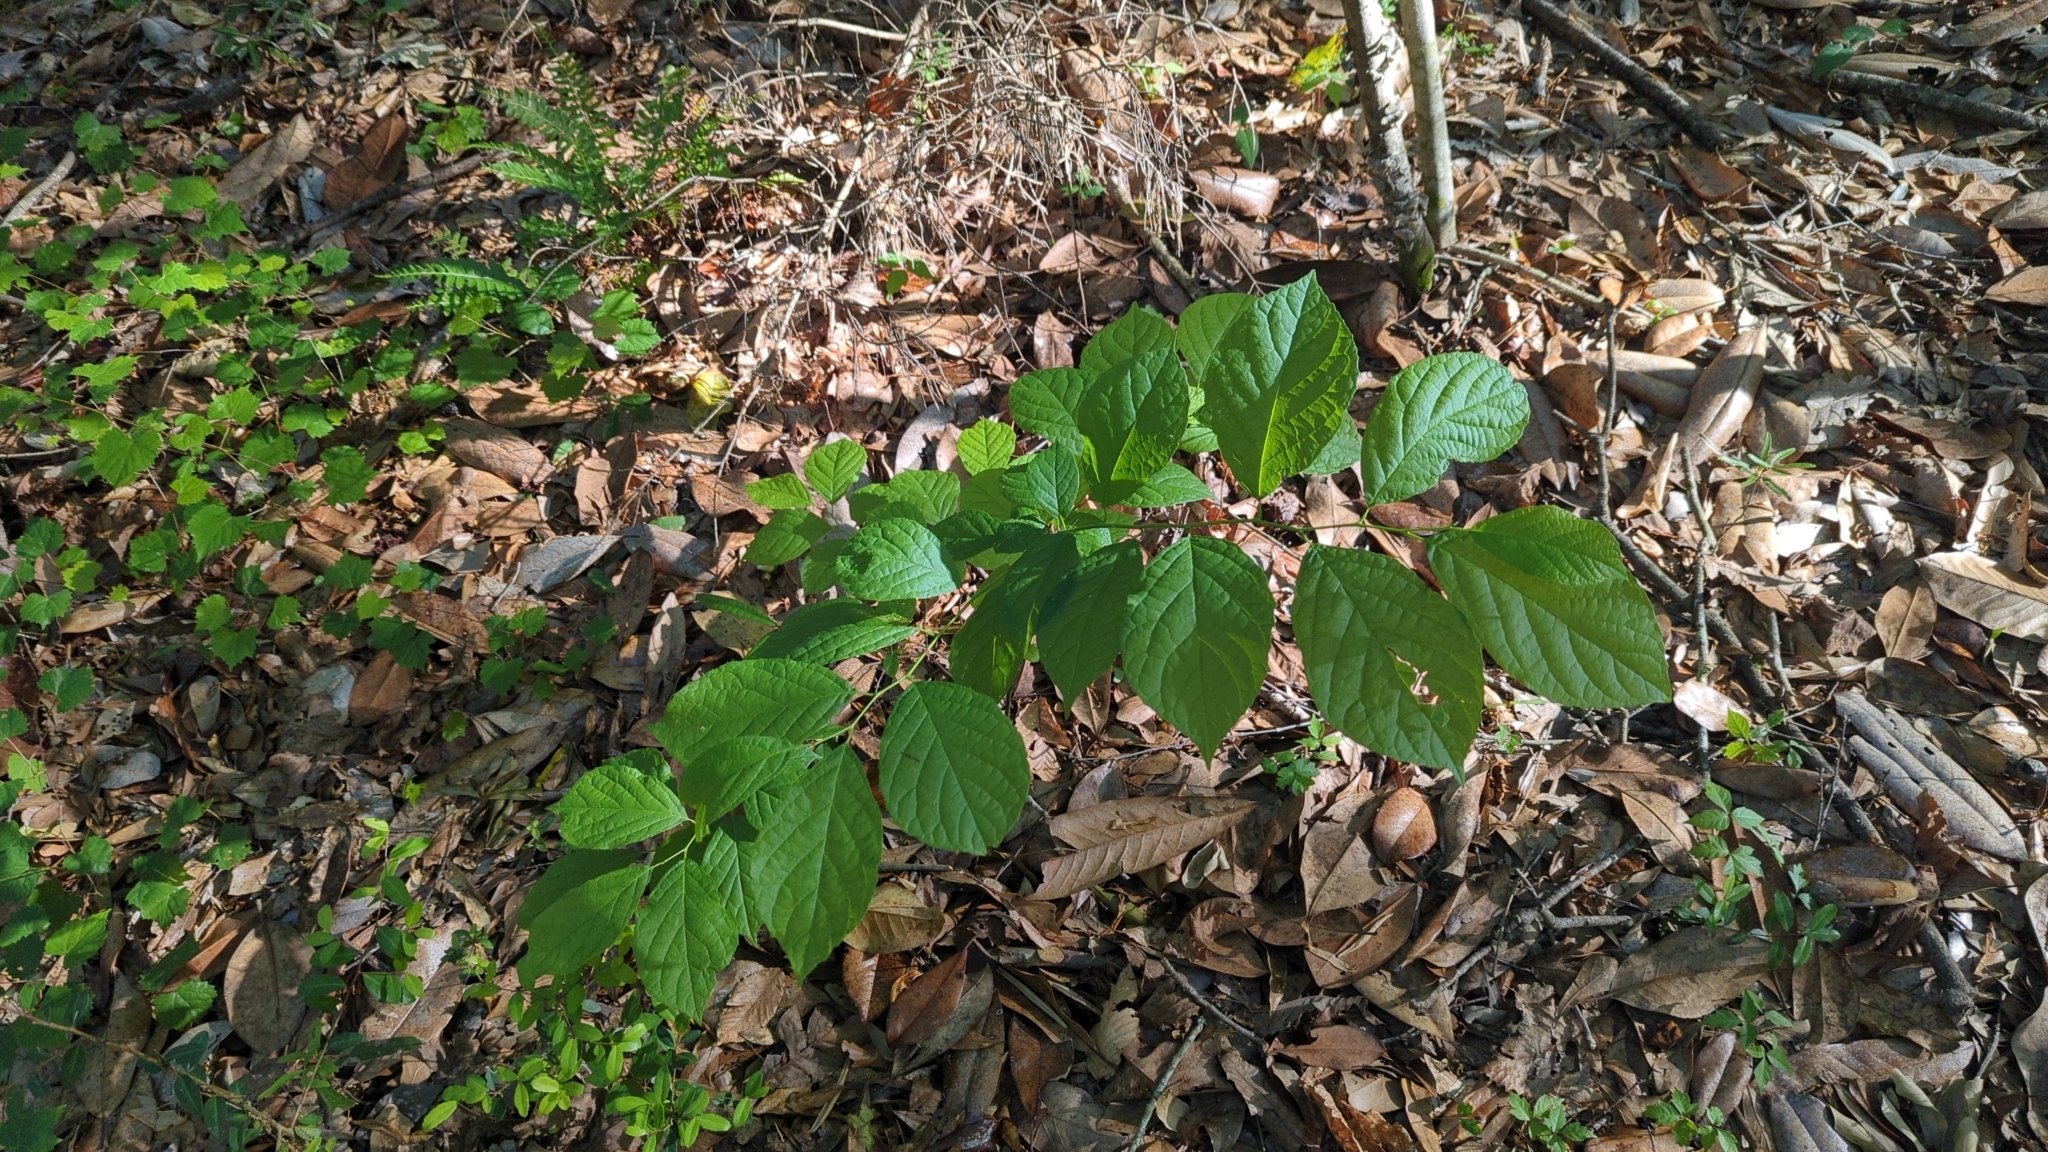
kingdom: Plantae
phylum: Tracheophyta
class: Magnoliopsida
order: Ericales
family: Styracaceae
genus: Halesia
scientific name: Halesia diptera
